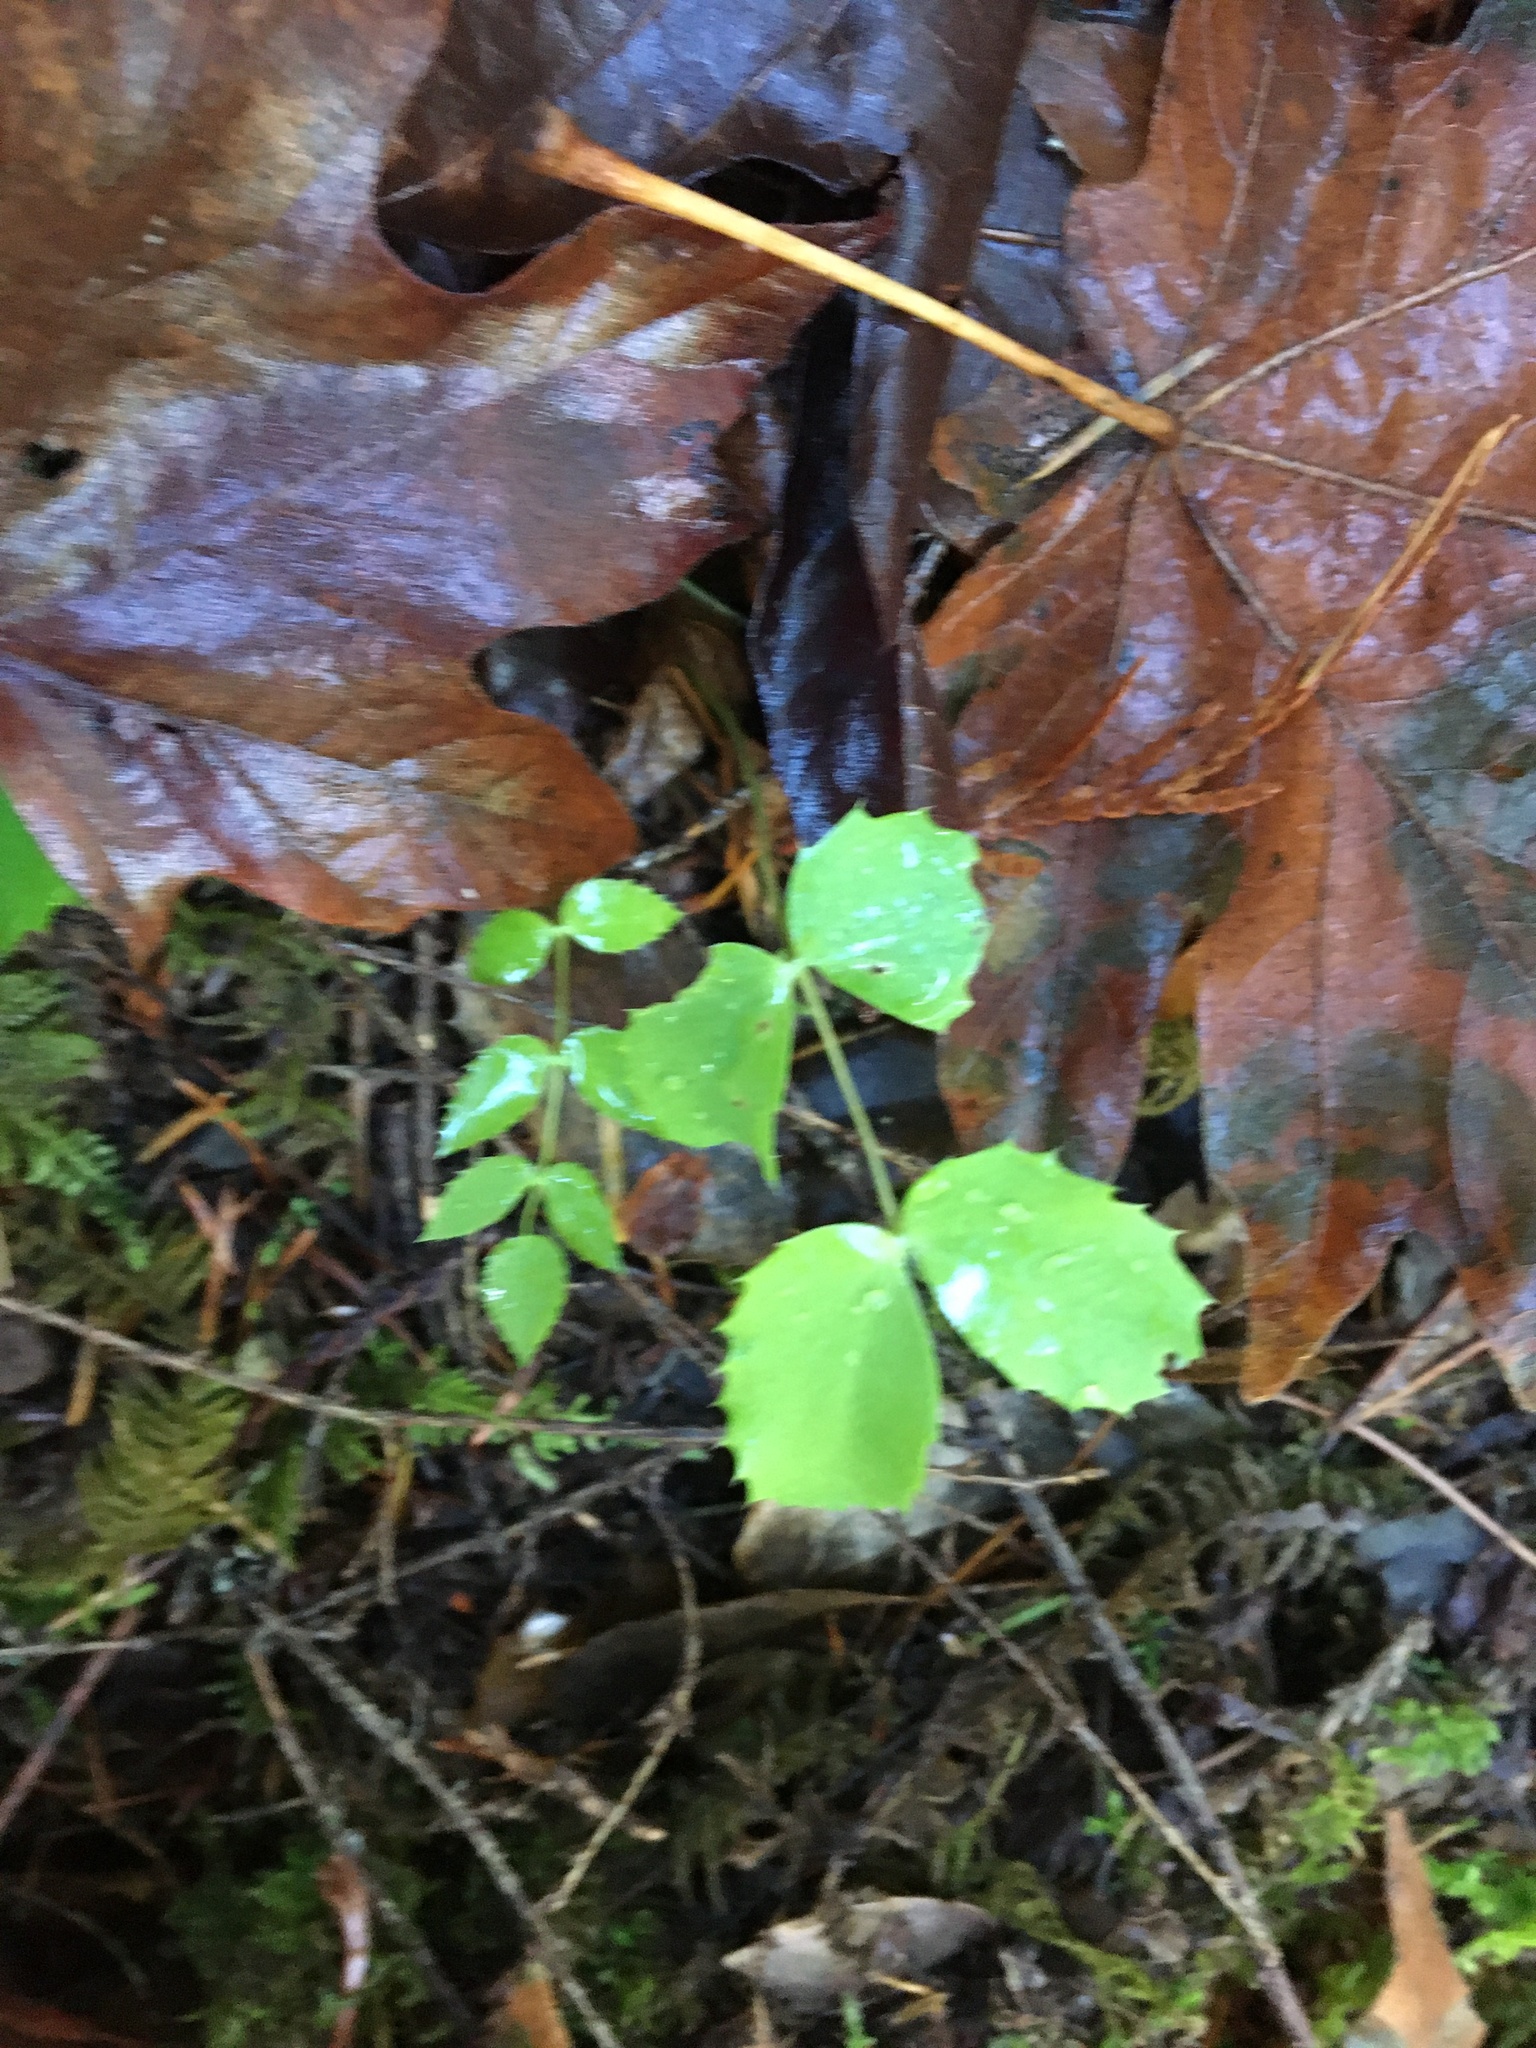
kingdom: Plantae
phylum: Tracheophyta
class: Magnoliopsida
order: Ranunculales
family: Berberidaceae
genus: Mahonia
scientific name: Mahonia nervosa
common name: Cascade oregon-grape
